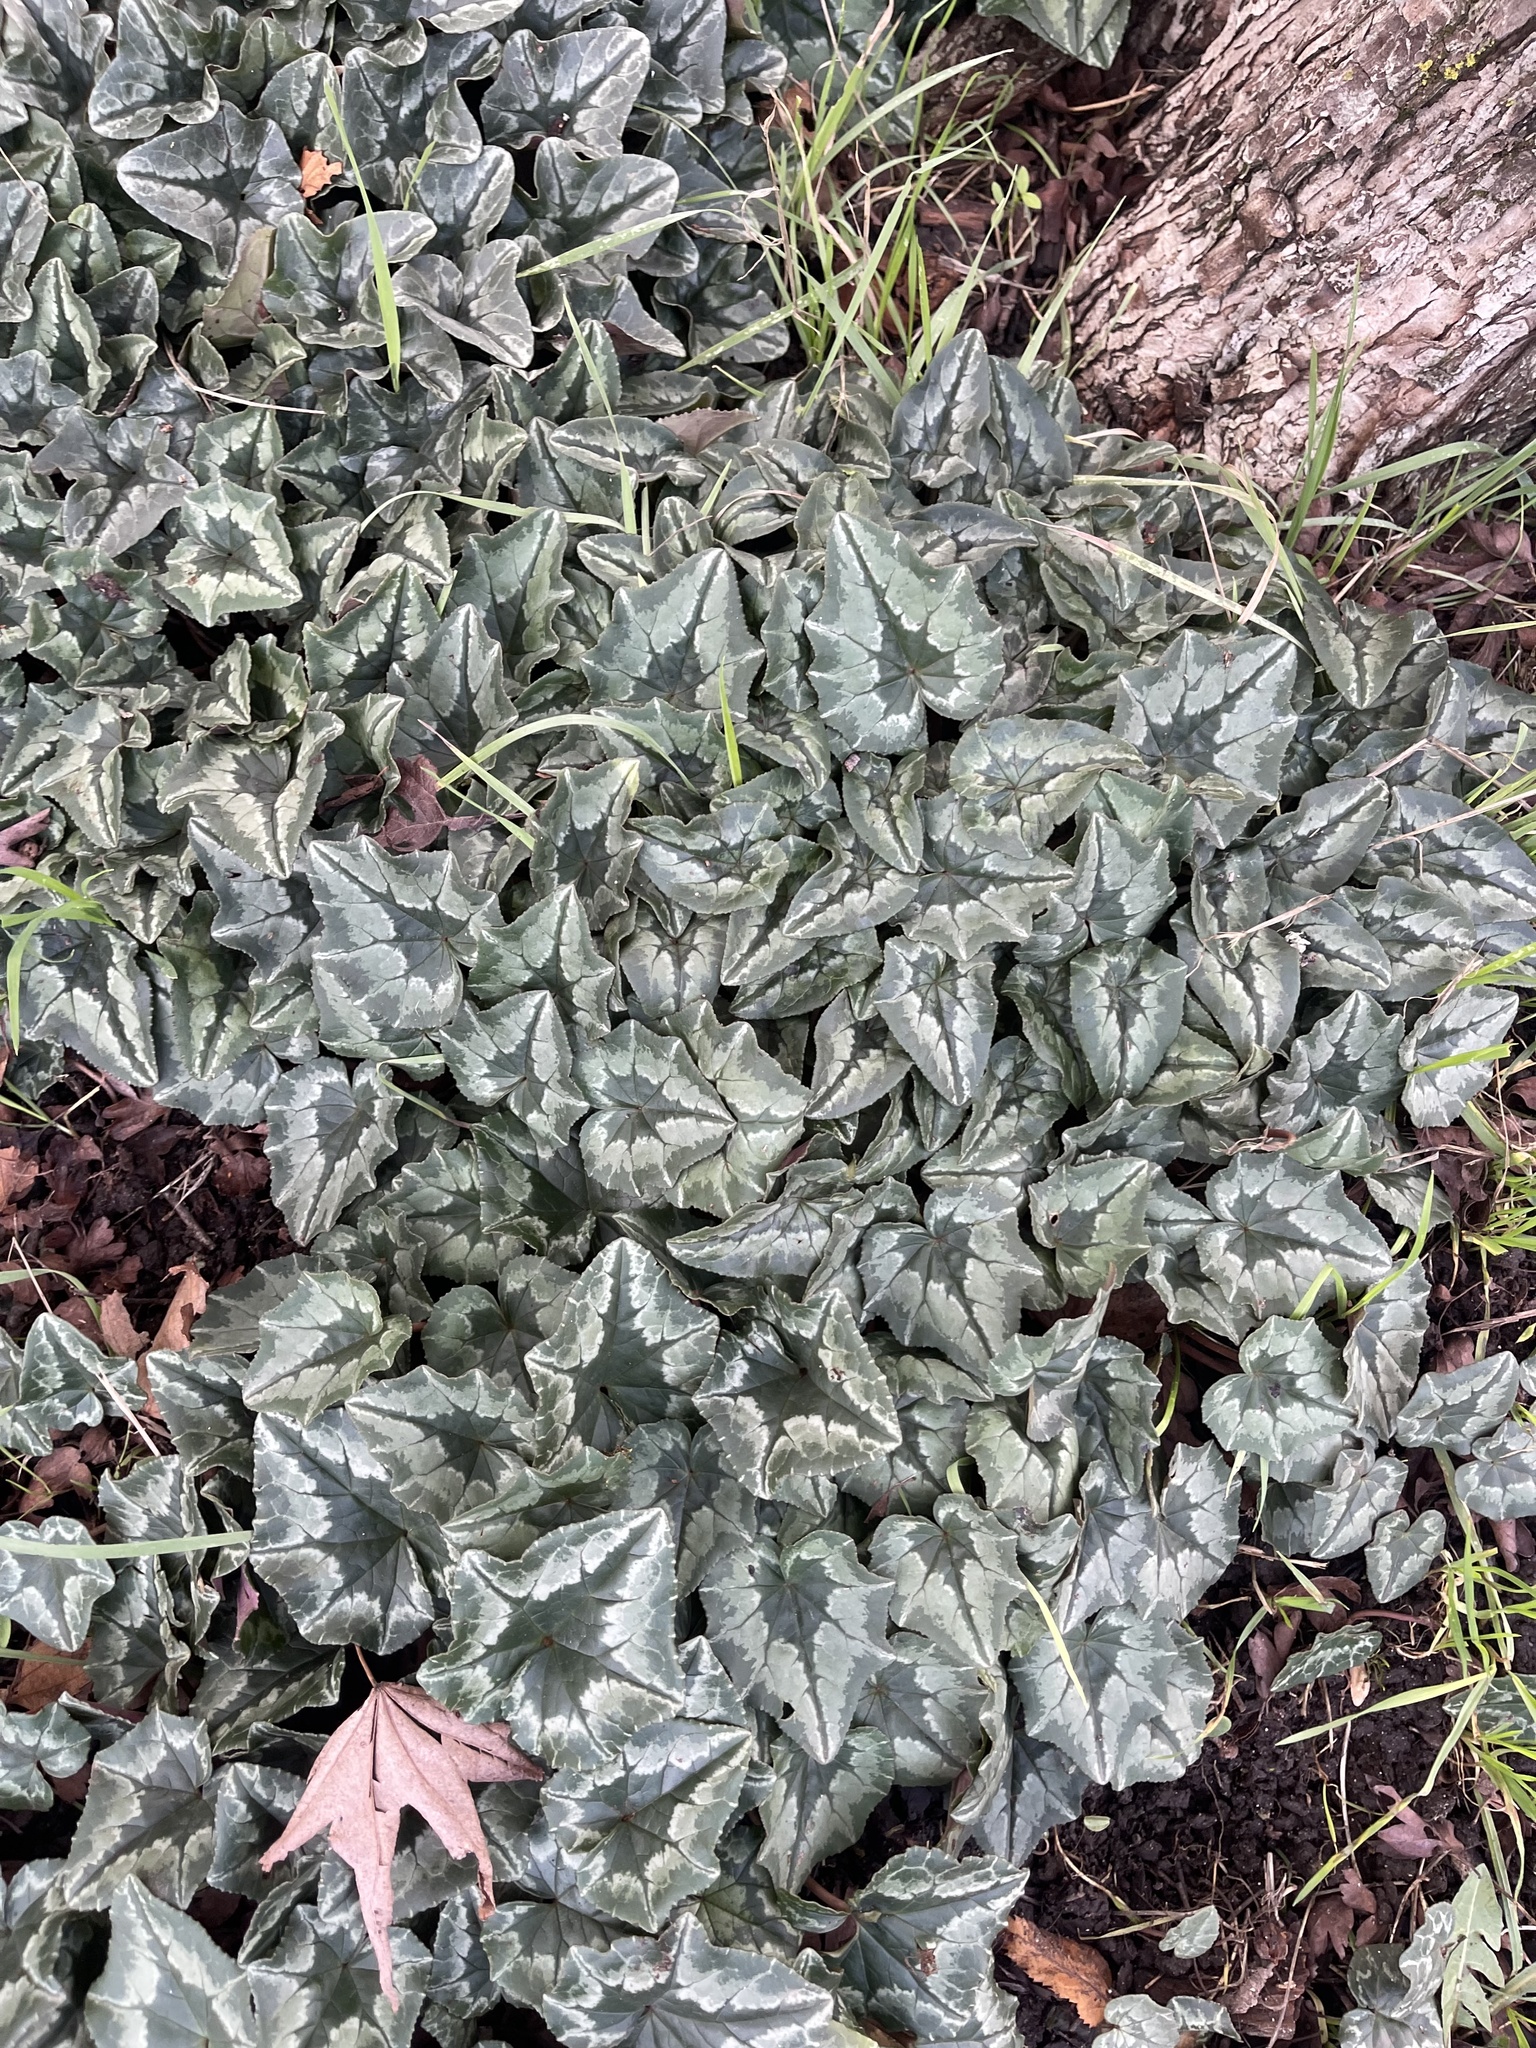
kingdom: Plantae
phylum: Tracheophyta
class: Magnoliopsida
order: Ericales
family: Primulaceae
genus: Cyclamen
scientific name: Cyclamen hederifolium
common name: Sowbread
